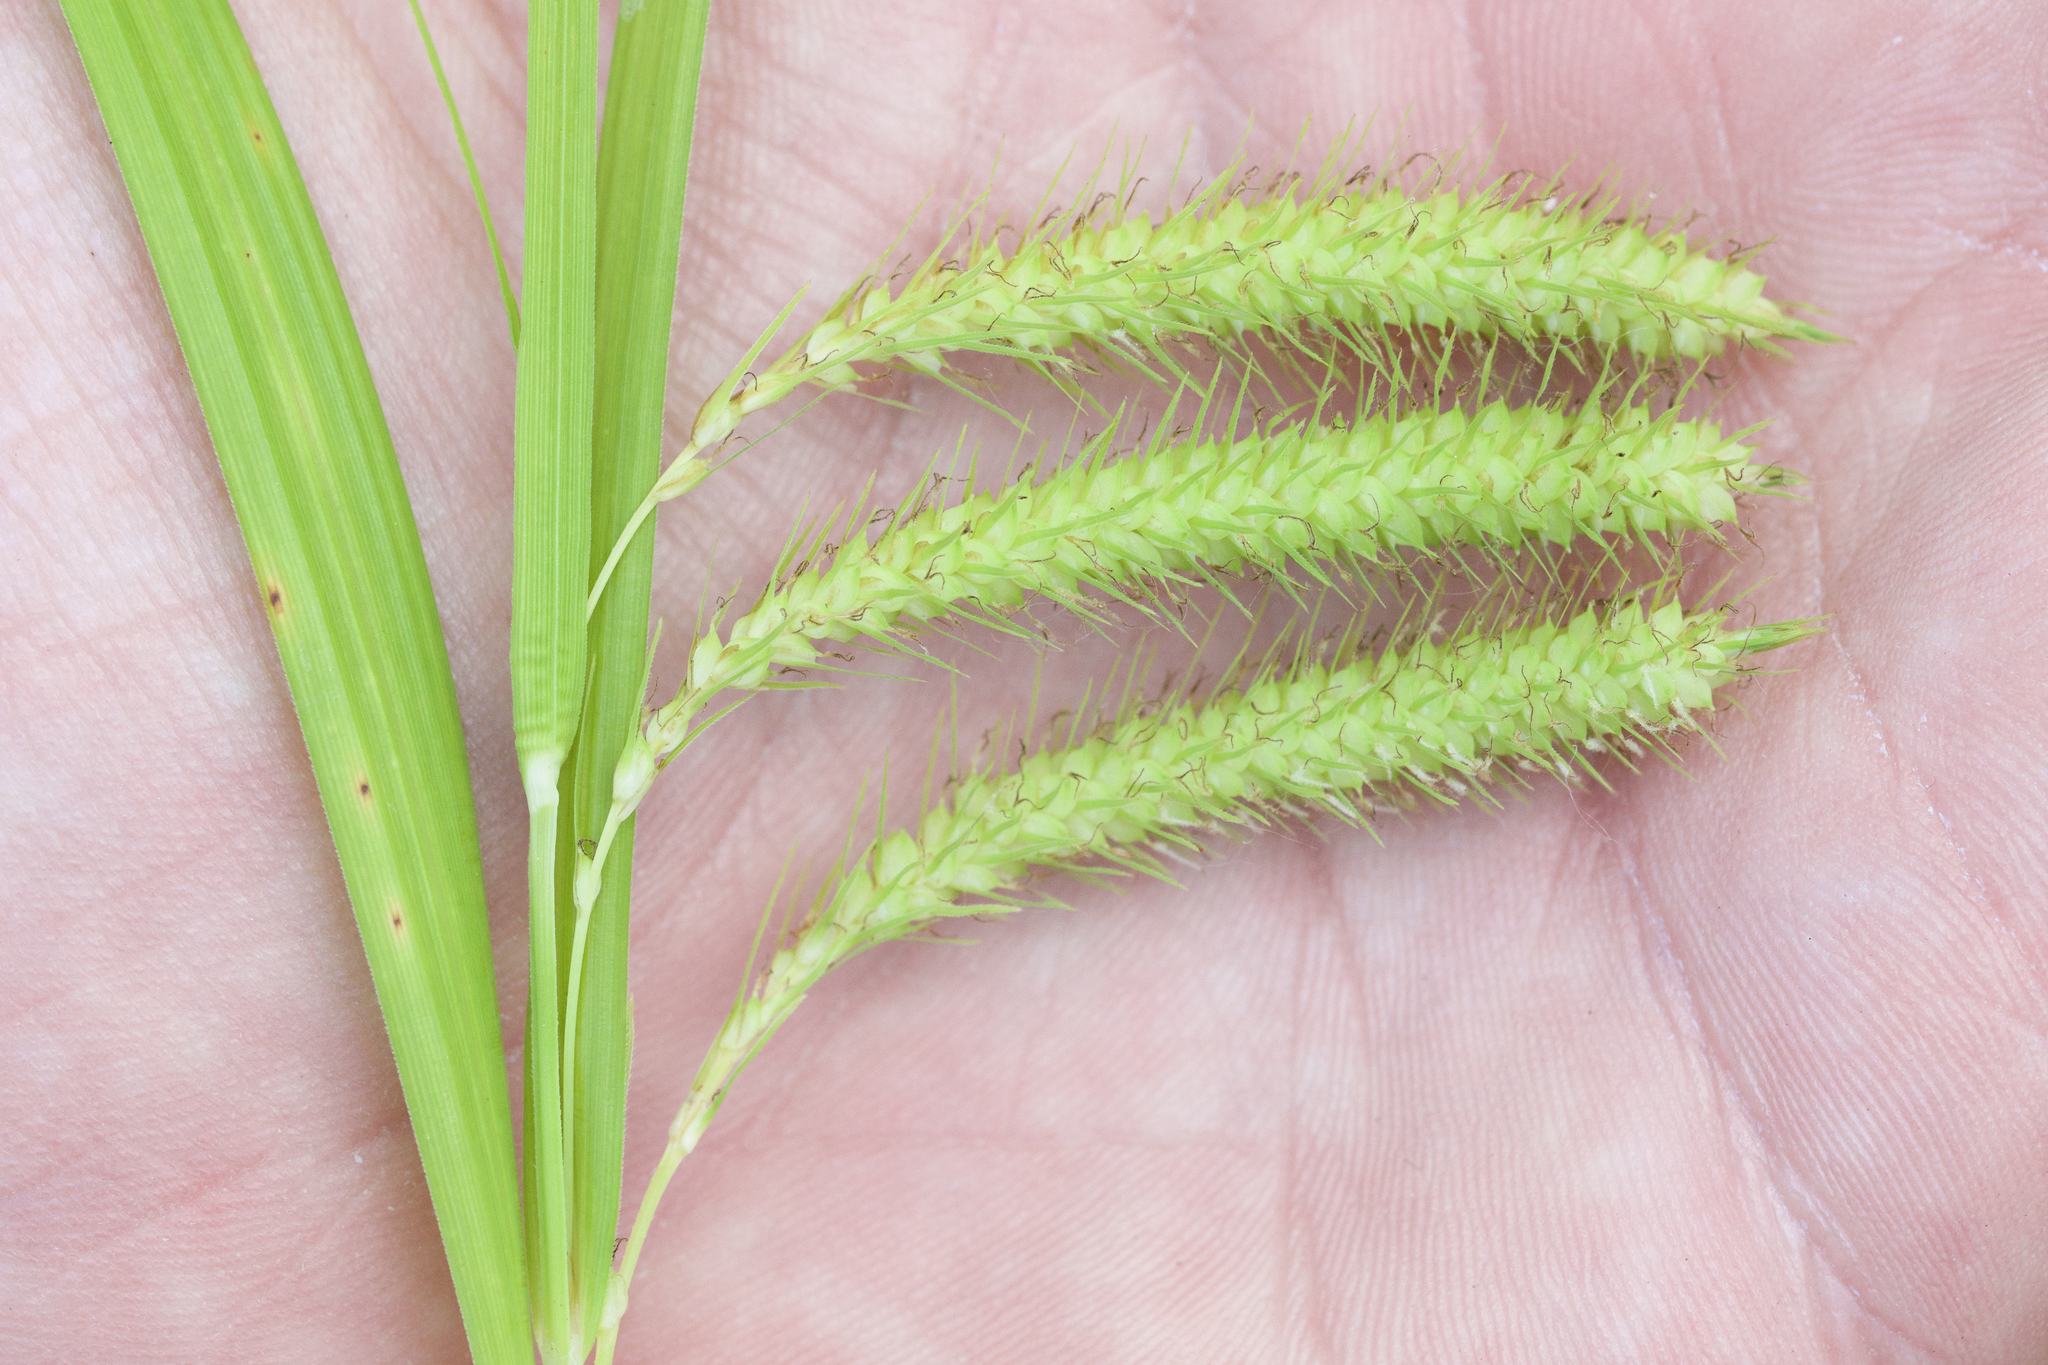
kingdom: Plantae
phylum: Tracheophyta
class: Liliopsida
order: Poales
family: Cyperaceae
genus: Carex
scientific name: Carex crinita
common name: Fringed sedge
